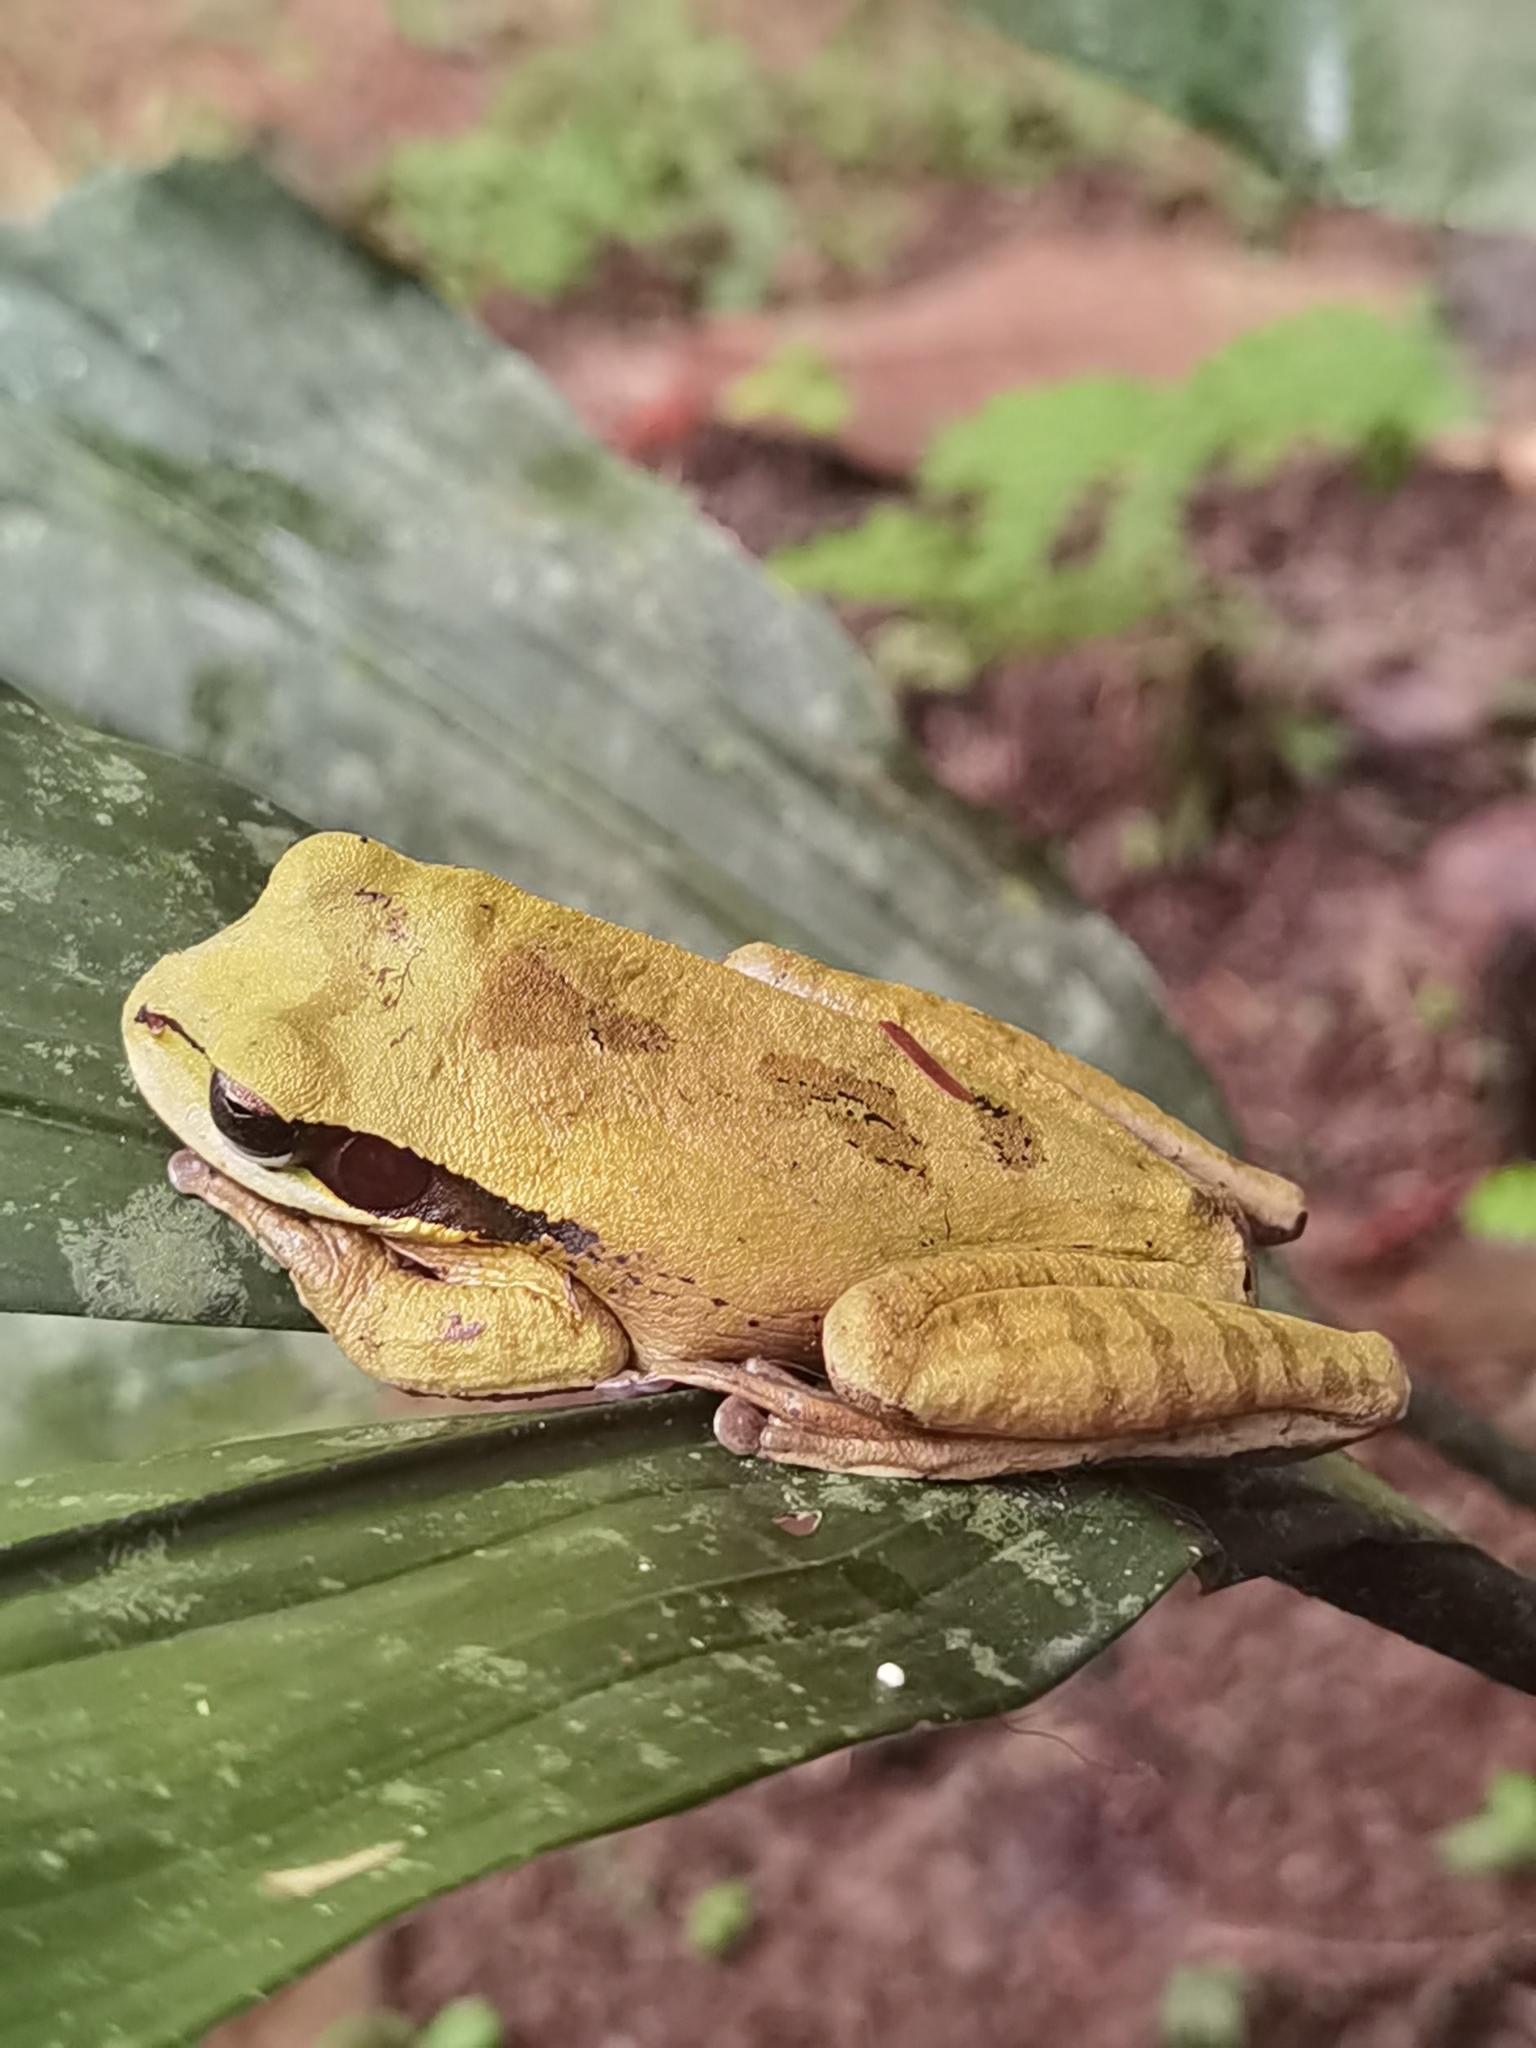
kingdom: Animalia
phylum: Chordata
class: Amphibia
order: Anura
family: Hylidae
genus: Smilisca
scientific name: Smilisca phaeota
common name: Central american smilisca
